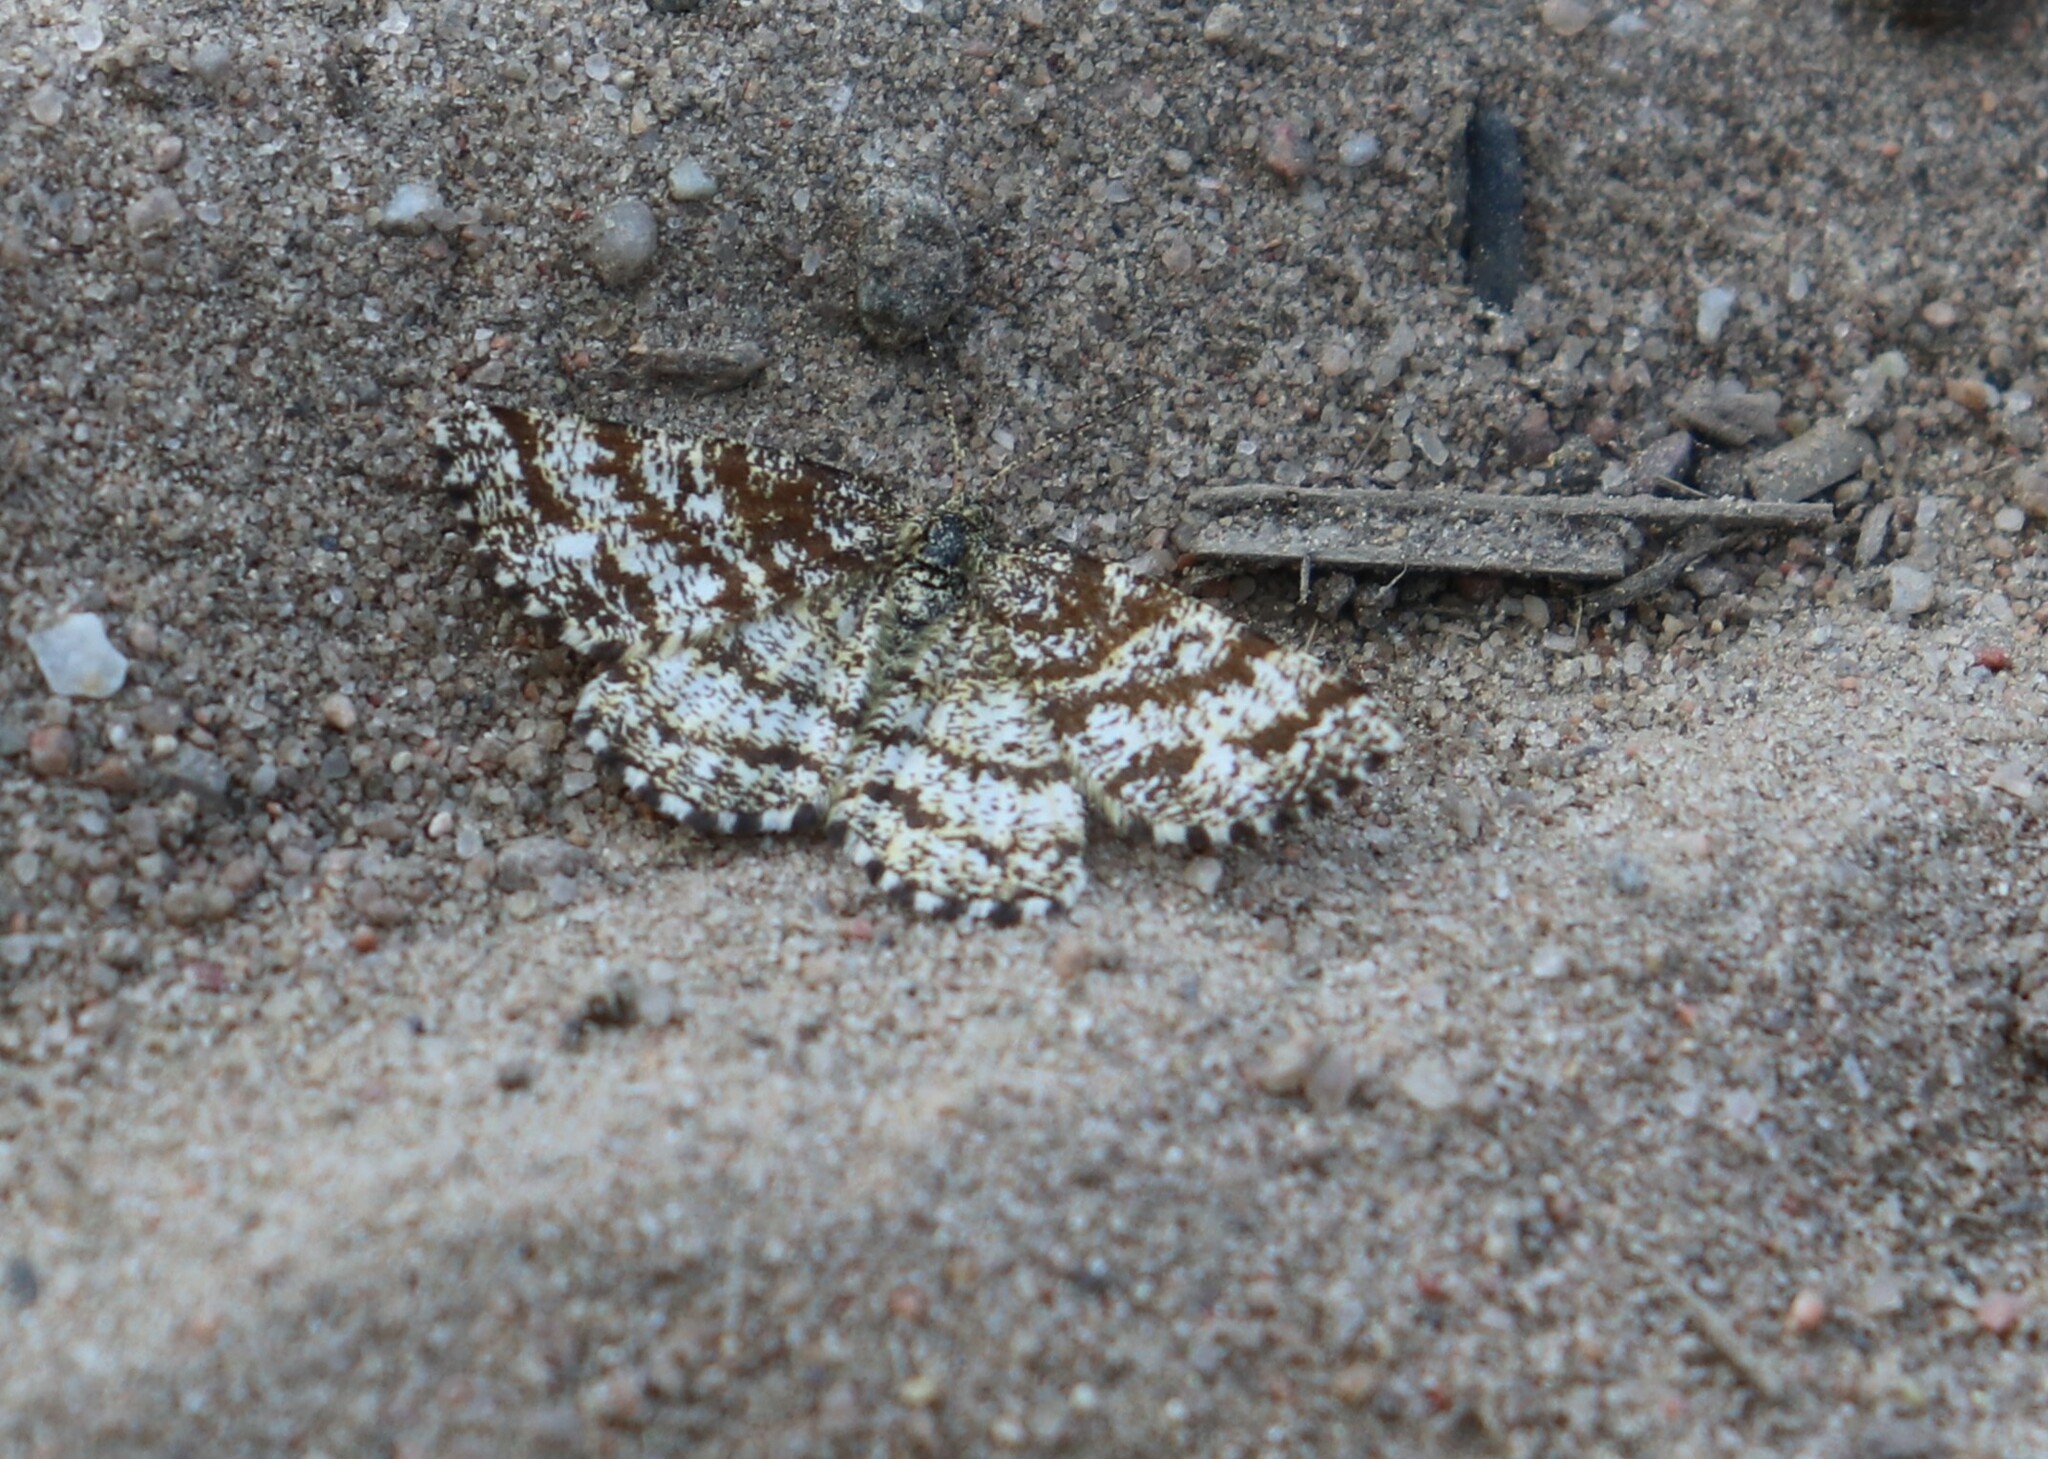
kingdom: Animalia
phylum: Arthropoda
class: Insecta
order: Lepidoptera
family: Geometridae
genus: Ematurga
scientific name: Ematurga atomaria
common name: Common heath
